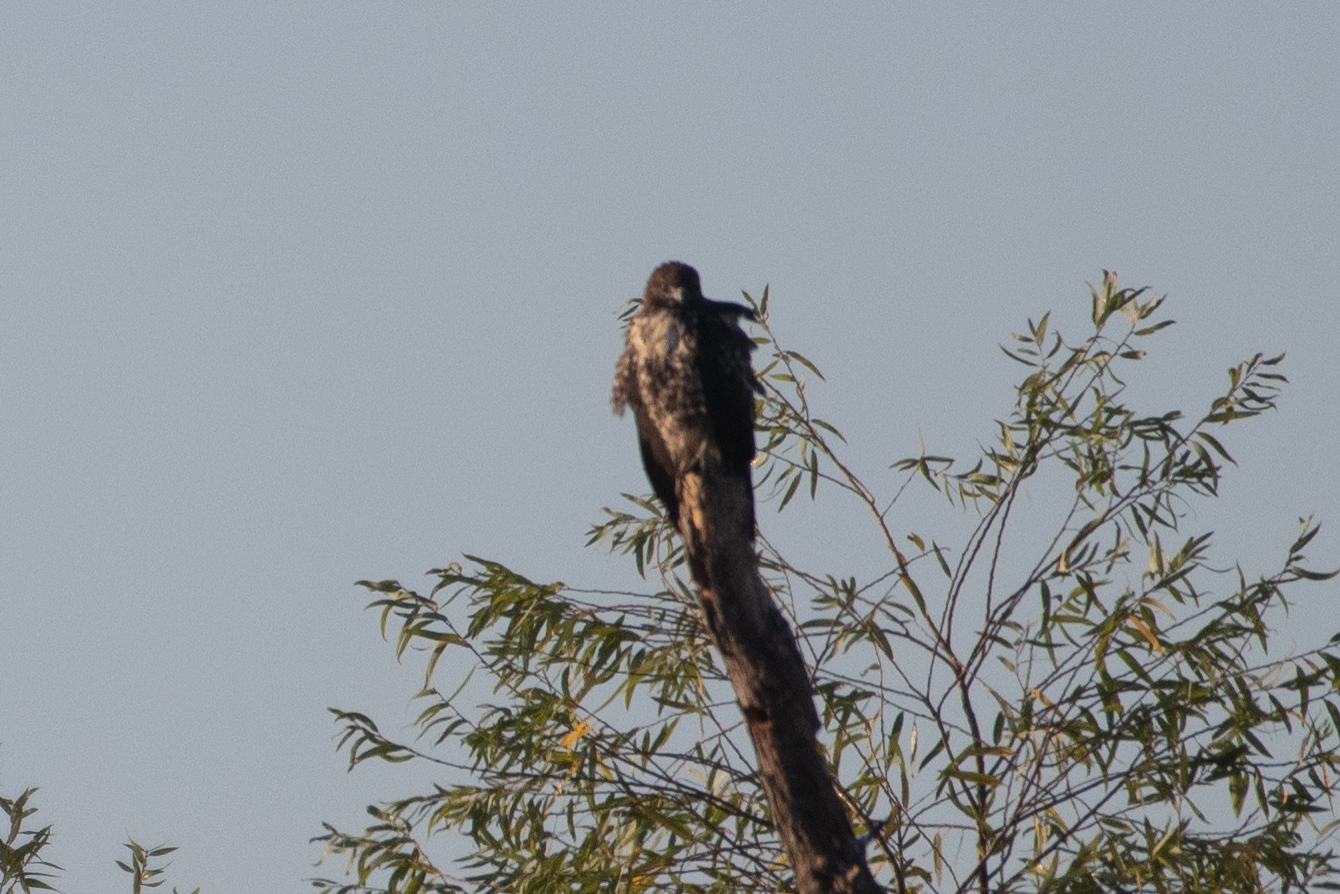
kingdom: Animalia
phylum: Chordata
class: Aves
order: Accipitriformes
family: Accipitridae
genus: Buteo
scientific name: Buteo jamaicensis
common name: Red-tailed hawk
